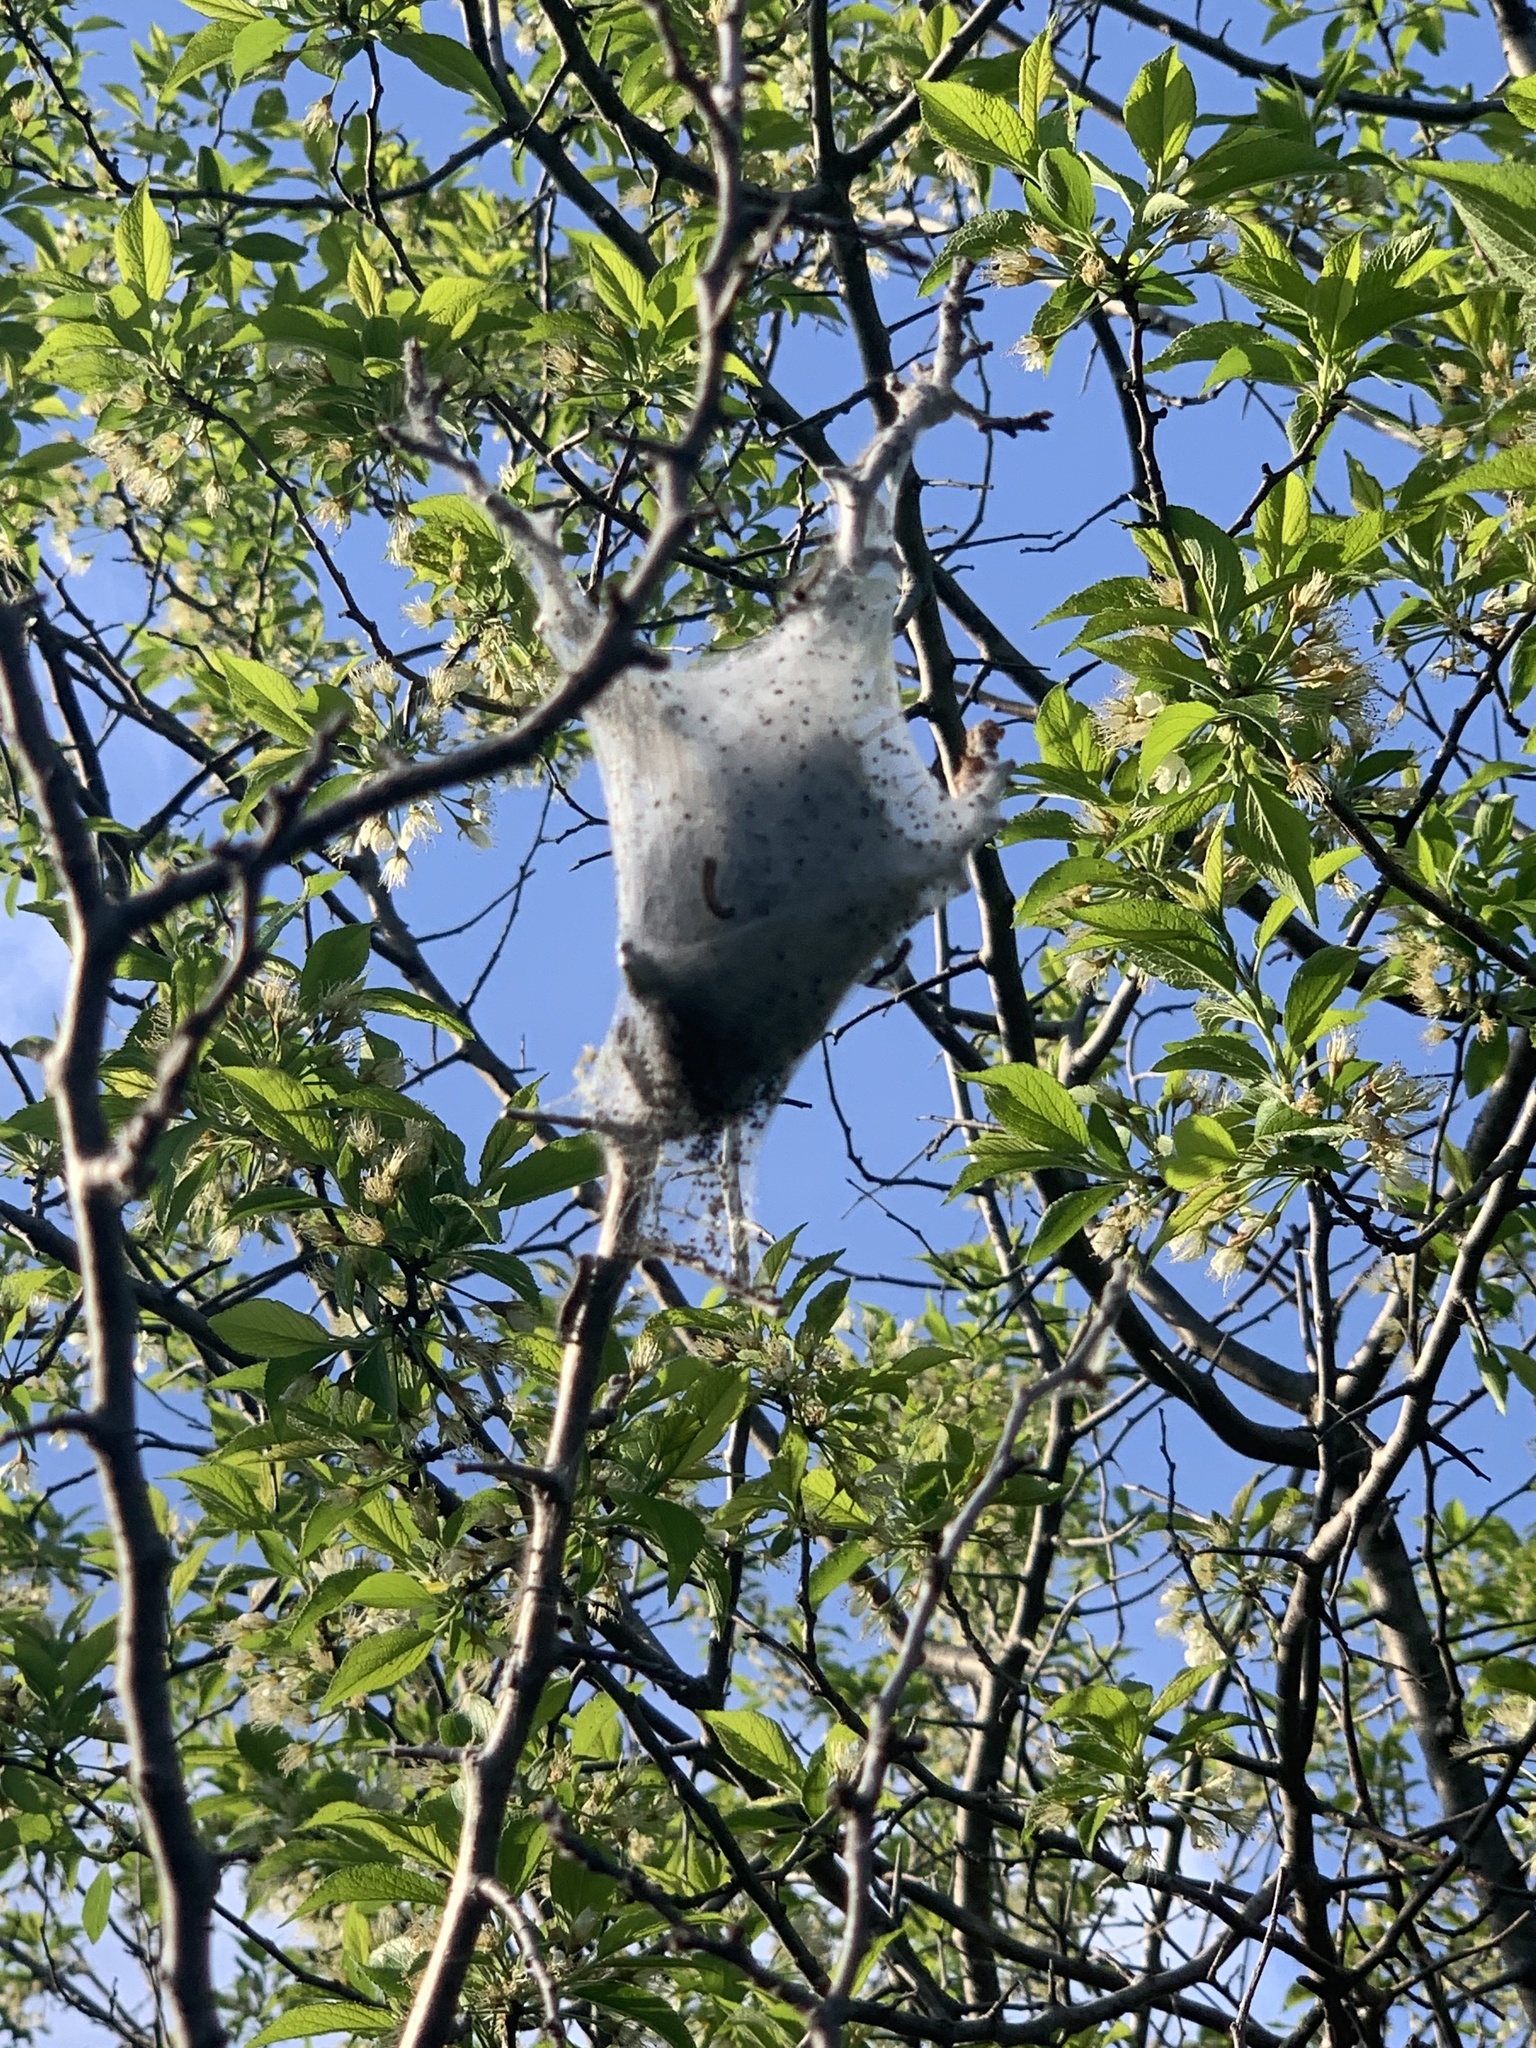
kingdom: Animalia
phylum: Arthropoda
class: Insecta
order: Lepidoptera
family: Lasiocampidae
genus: Malacosoma
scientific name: Malacosoma americana
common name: Eastern tent caterpillar moth
